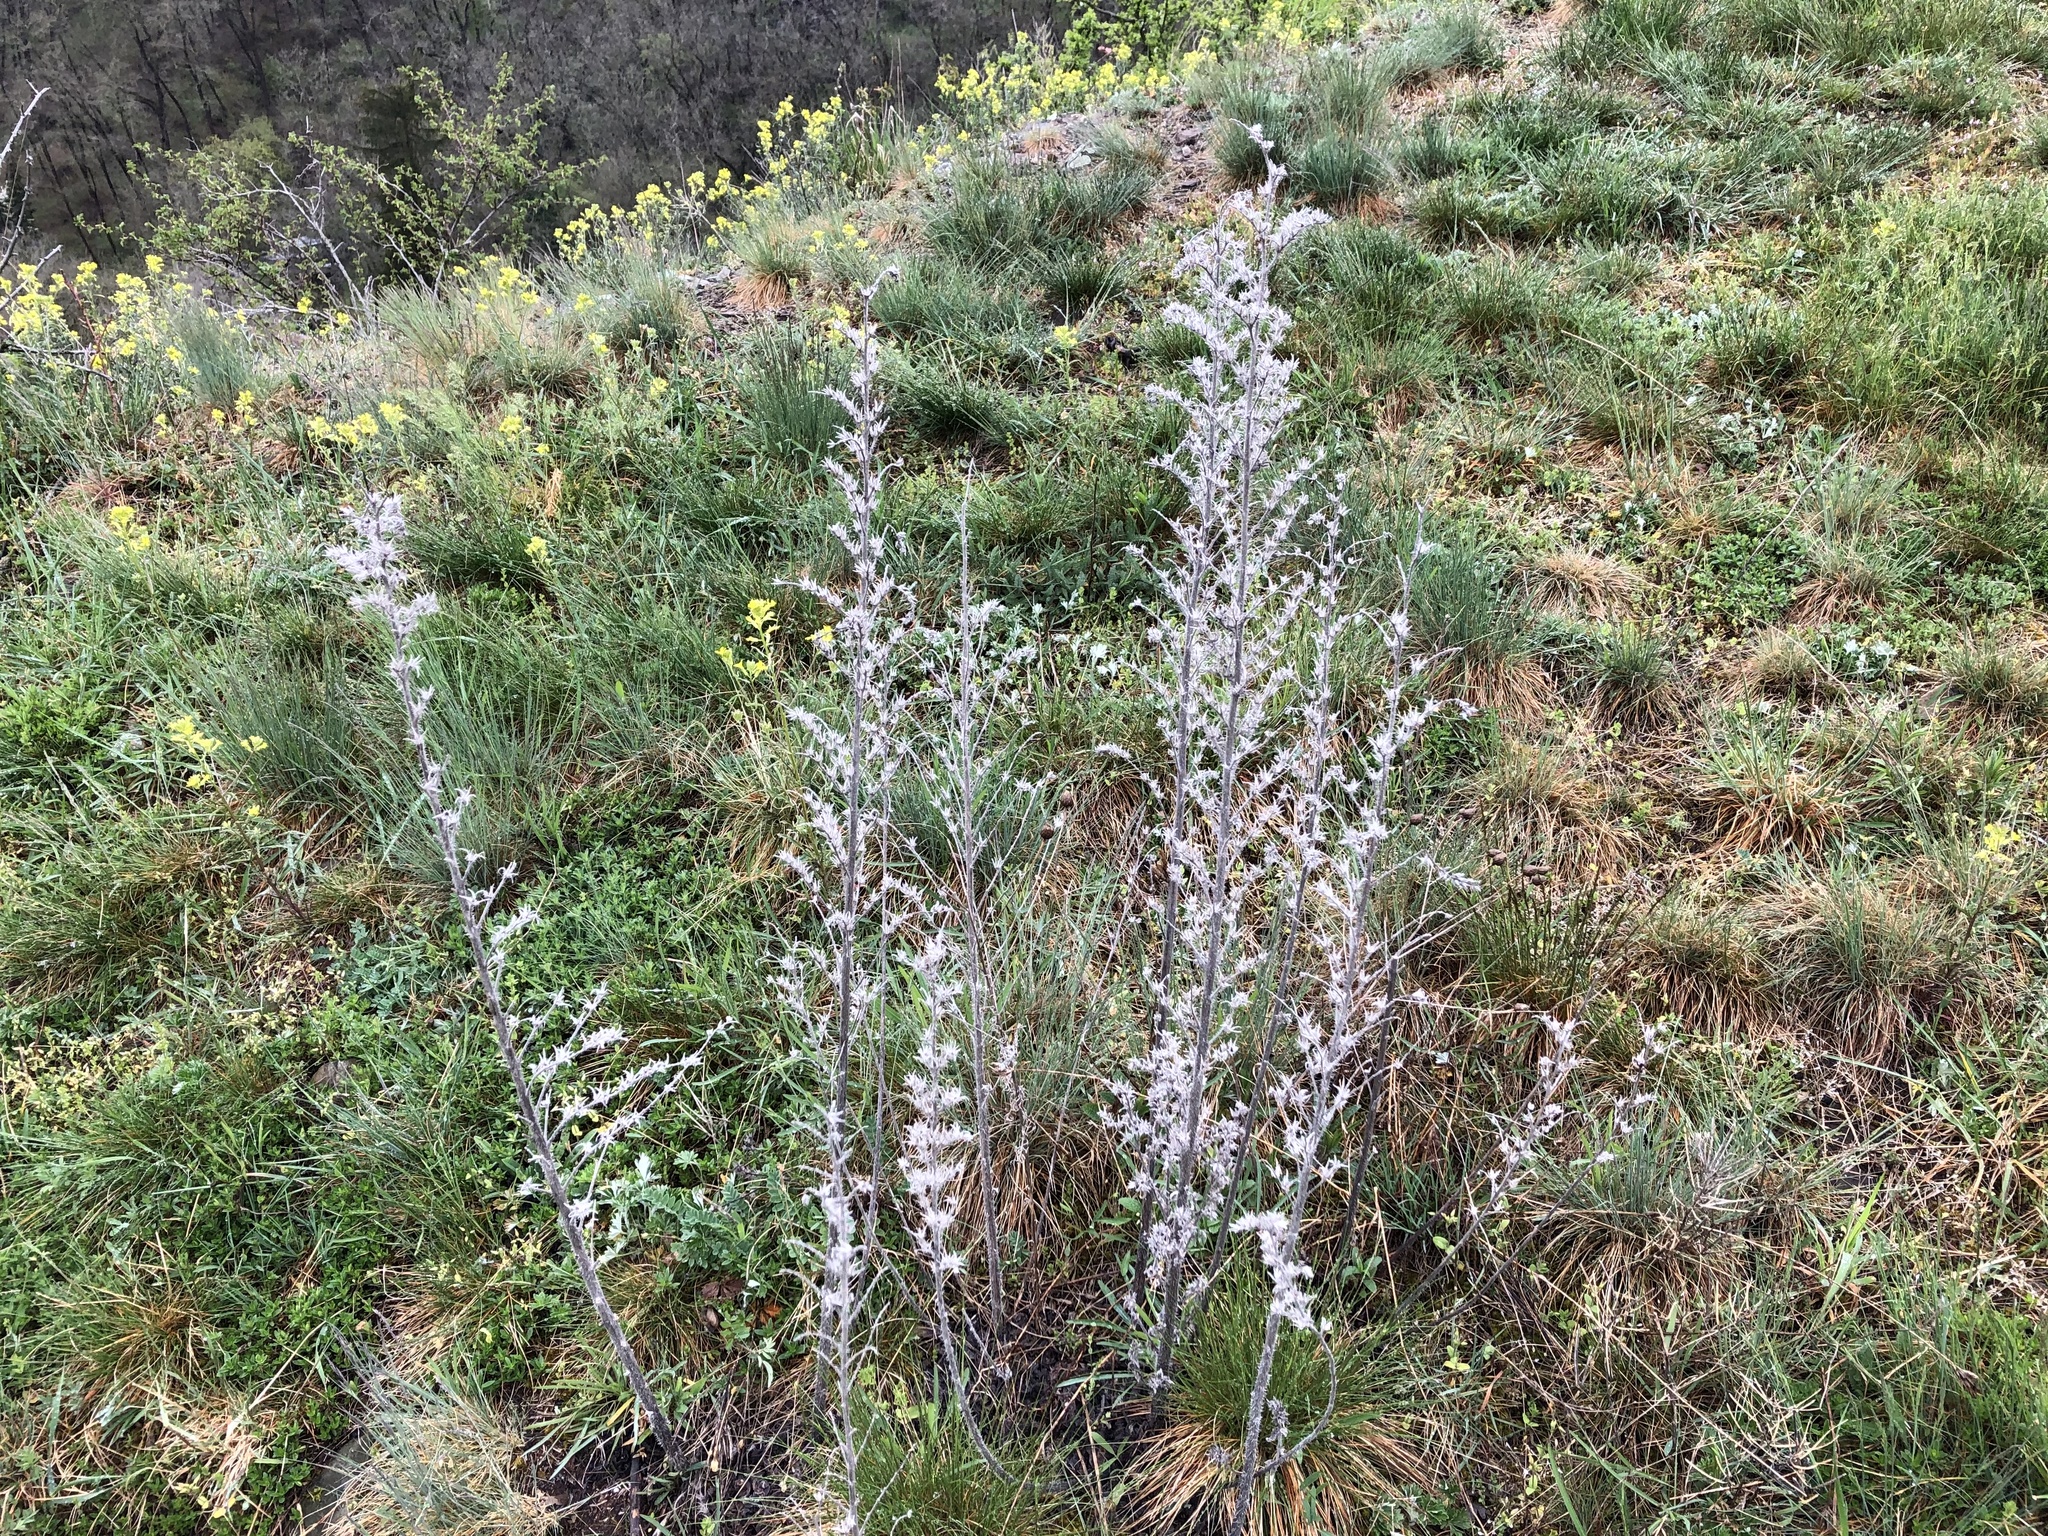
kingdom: Plantae
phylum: Tracheophyta
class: Magnoliopsida
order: Boraginales
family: Boraginaceae
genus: Echium
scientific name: Echium vulgare
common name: Common viper's bugloss
